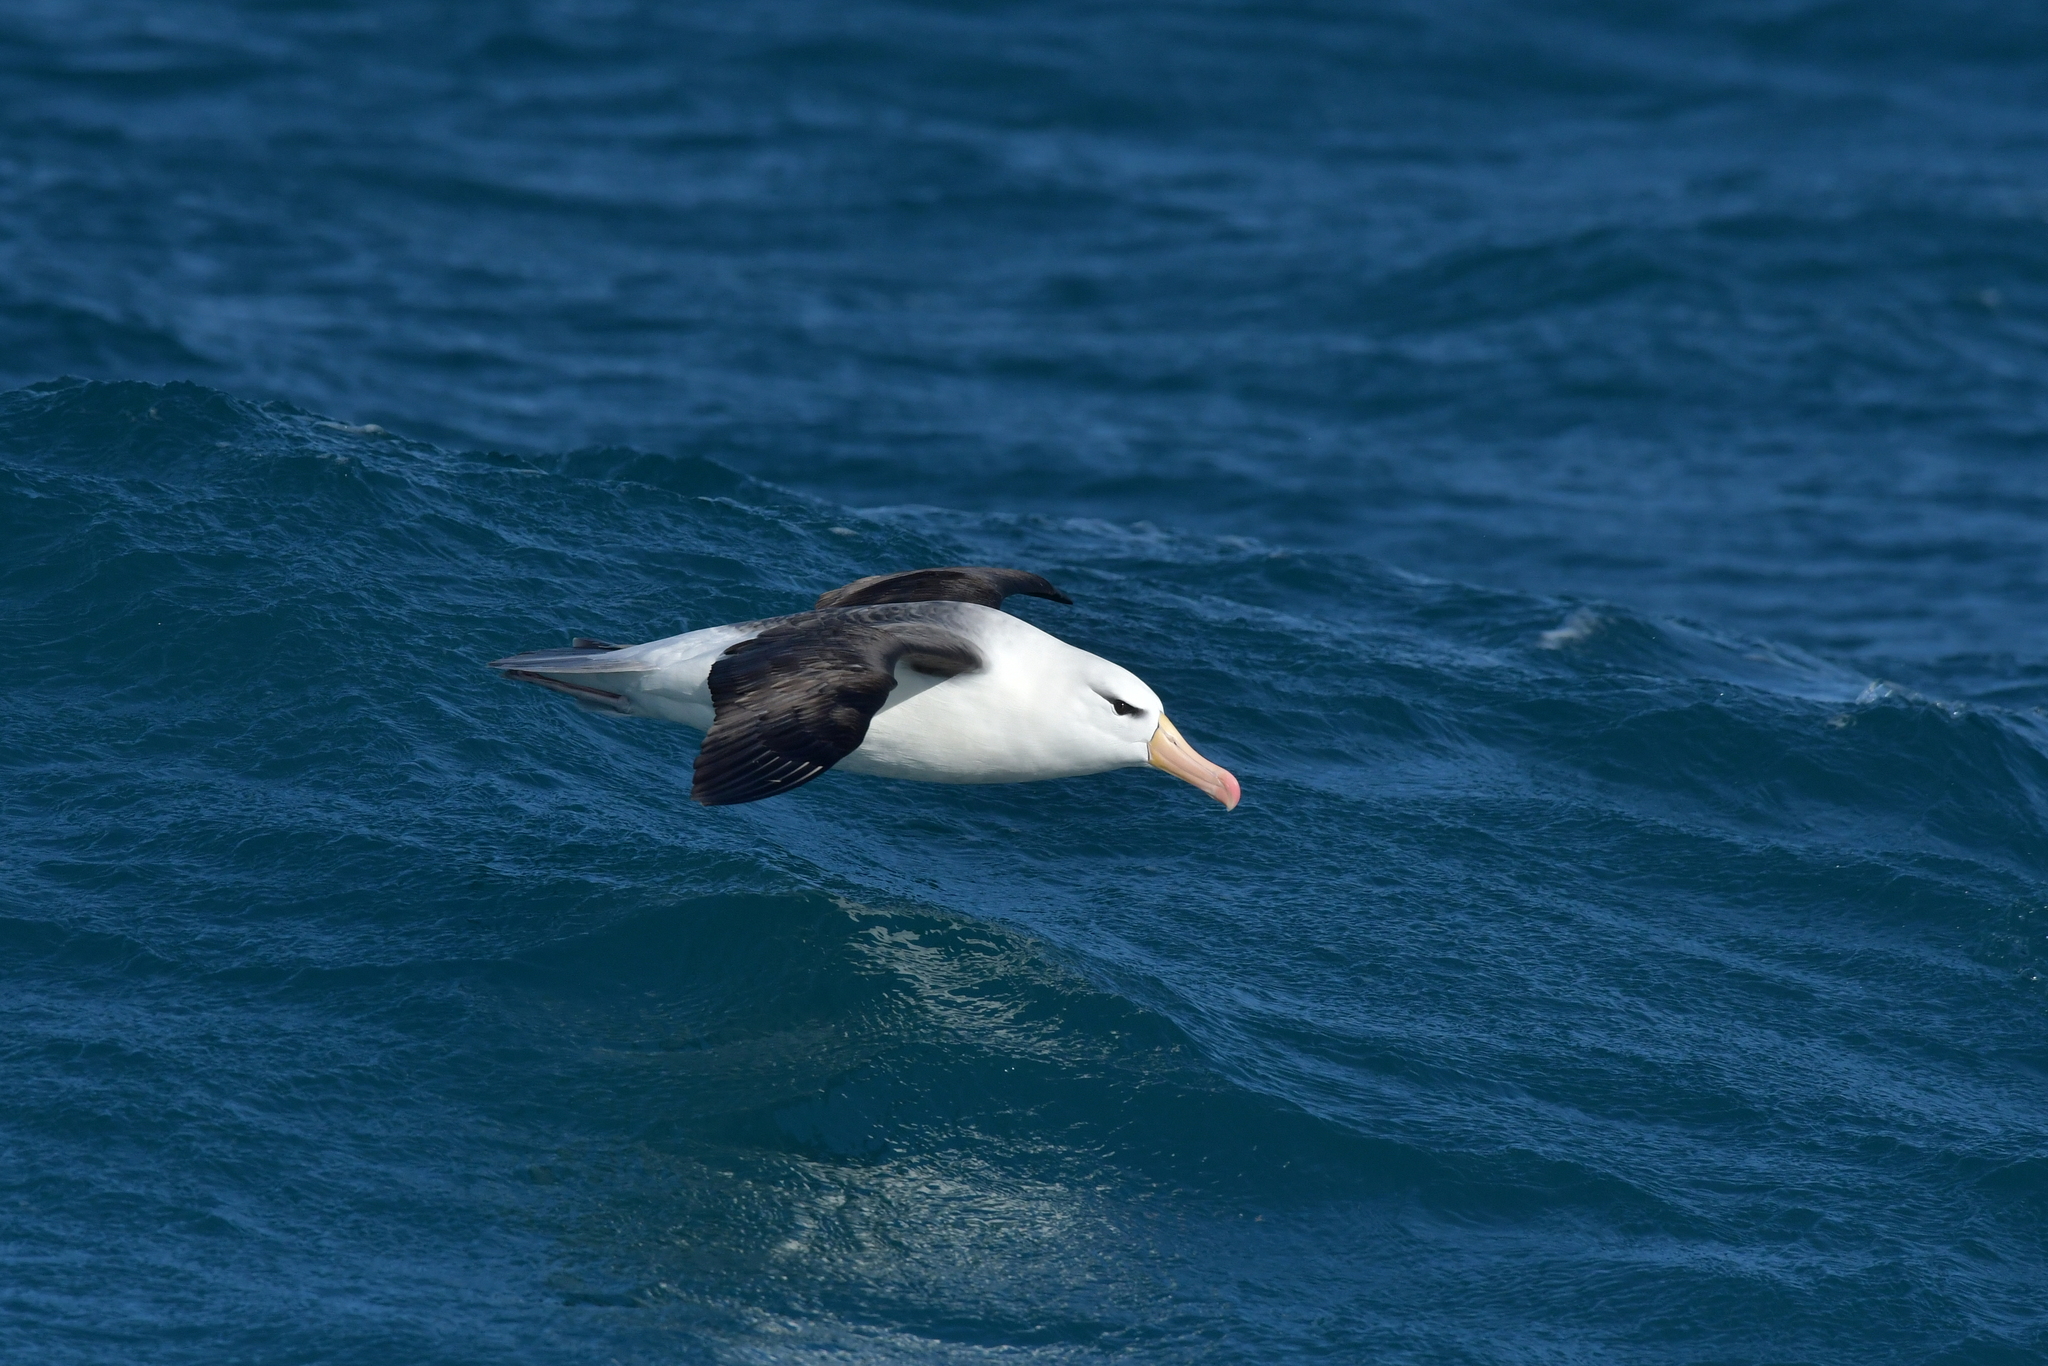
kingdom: Animalia
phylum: Chordata
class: Aves
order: Procellariiformes
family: Diomedeidae
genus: Thalassarche
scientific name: Thalassarche melanophris
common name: Black-browed albatross
